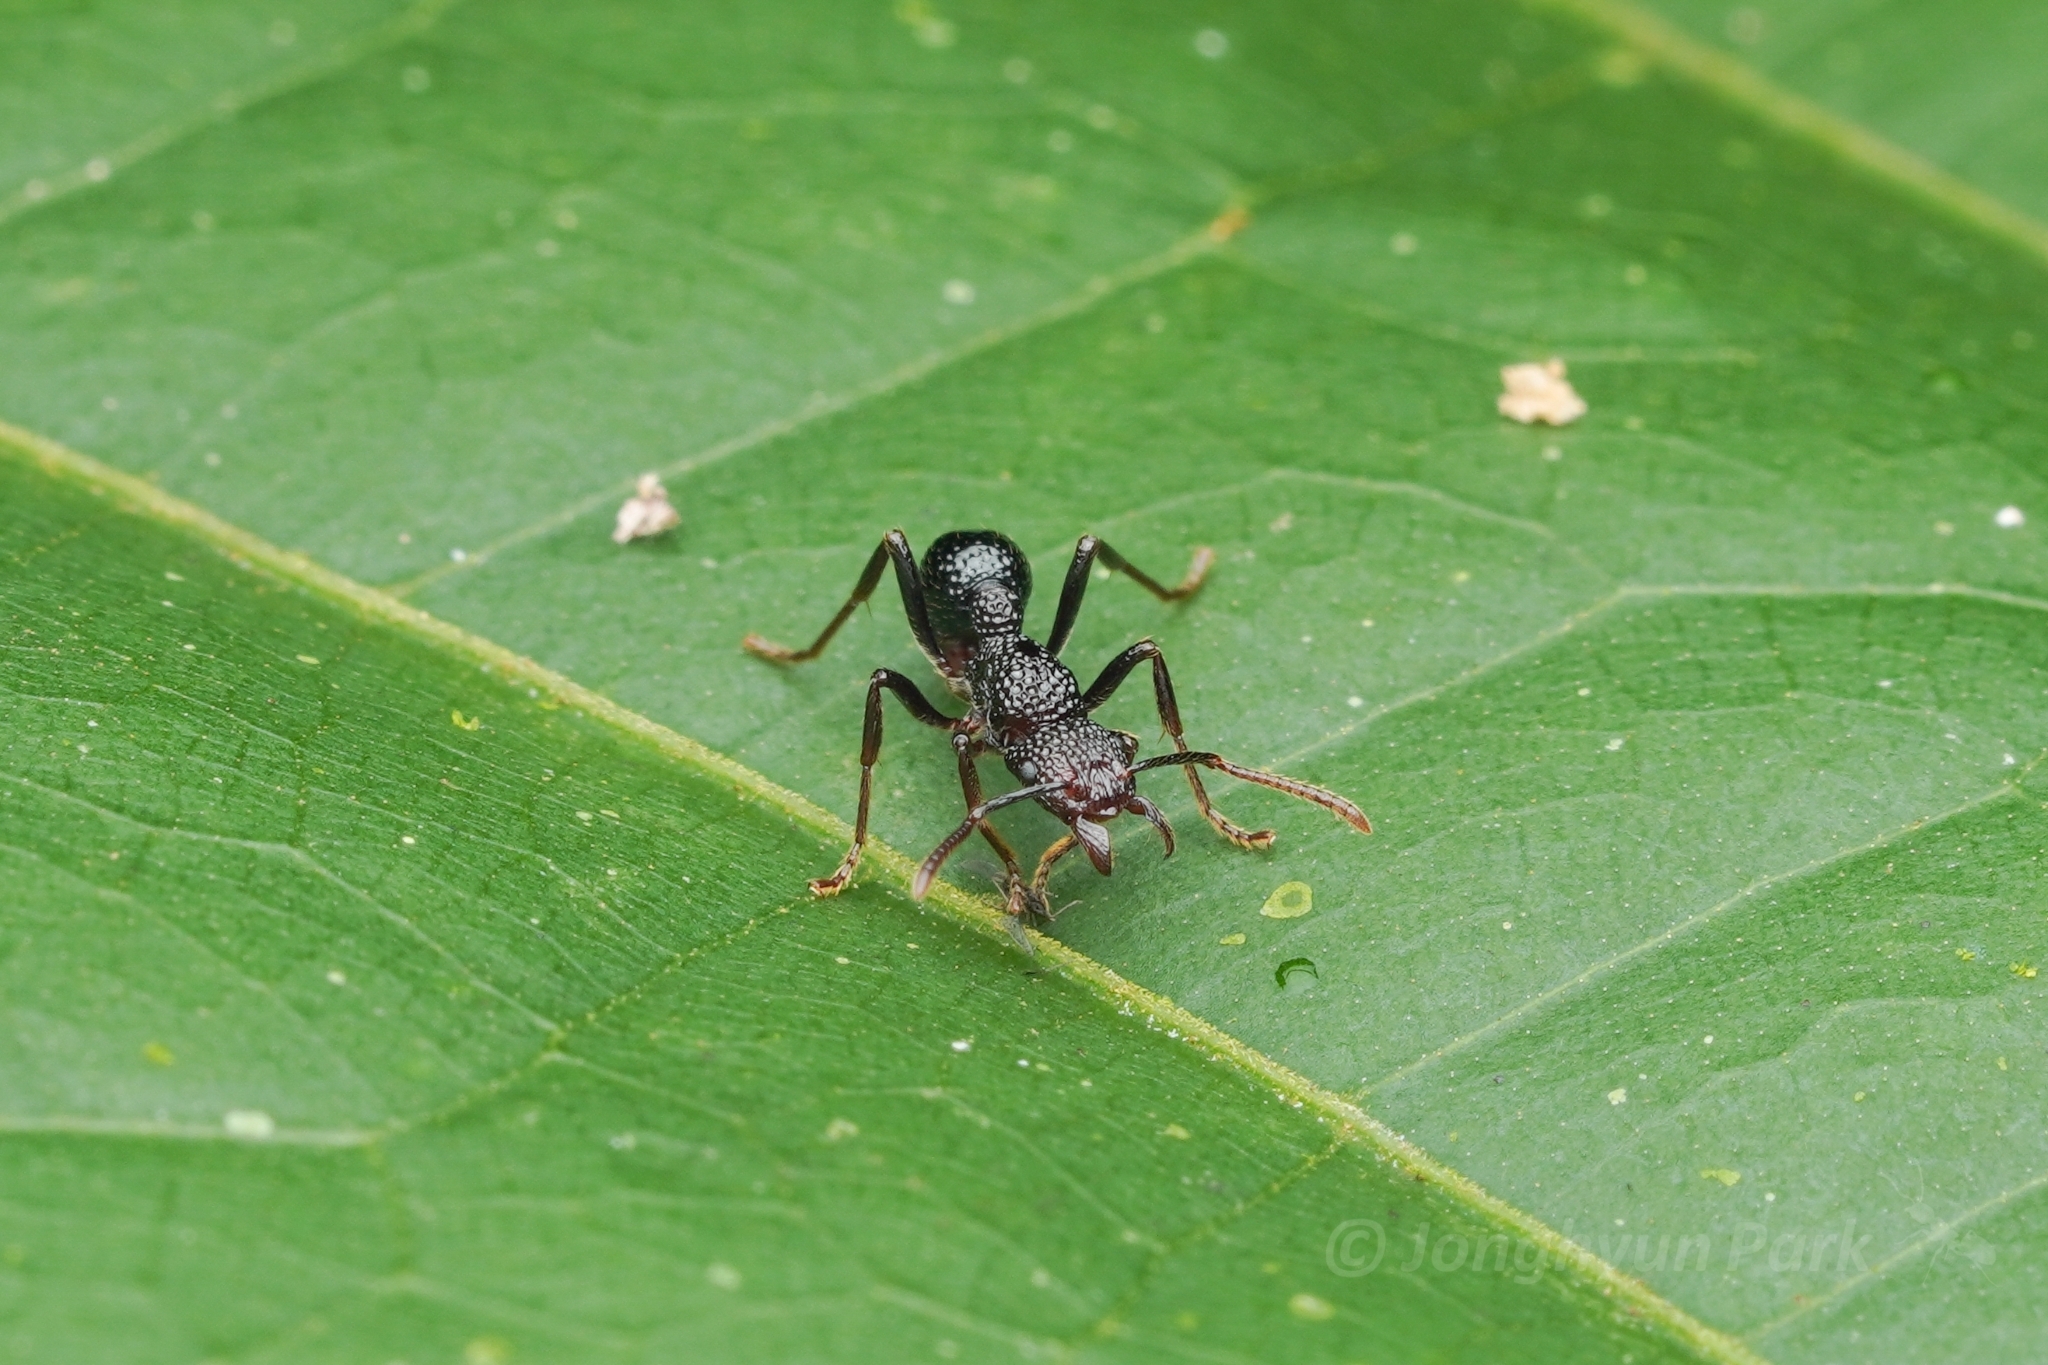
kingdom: Animalia
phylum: Arthropoda
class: Insecta
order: Hymenoptera
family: Formicidae
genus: Stictoponera
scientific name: Stictoponera
